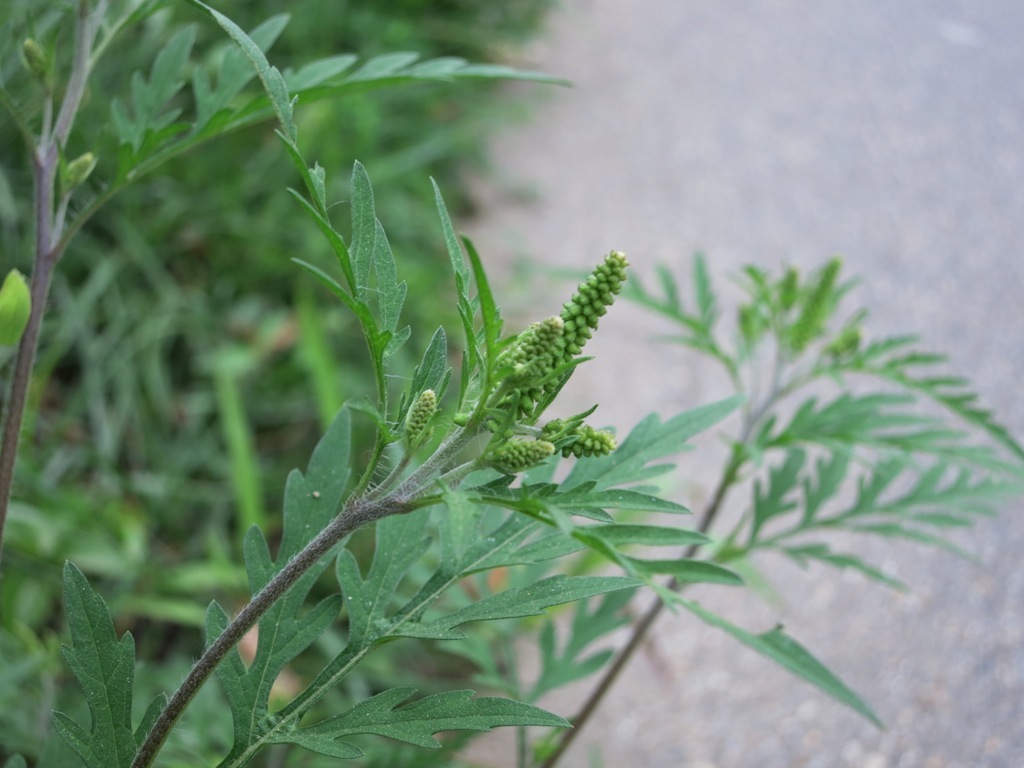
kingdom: Plantae
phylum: Tracheophyta
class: Magnoliopsida
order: Asterales
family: Asteraceae
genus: Ambrosia
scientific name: Ambrosia artemisiifolia
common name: Annual ragweed
